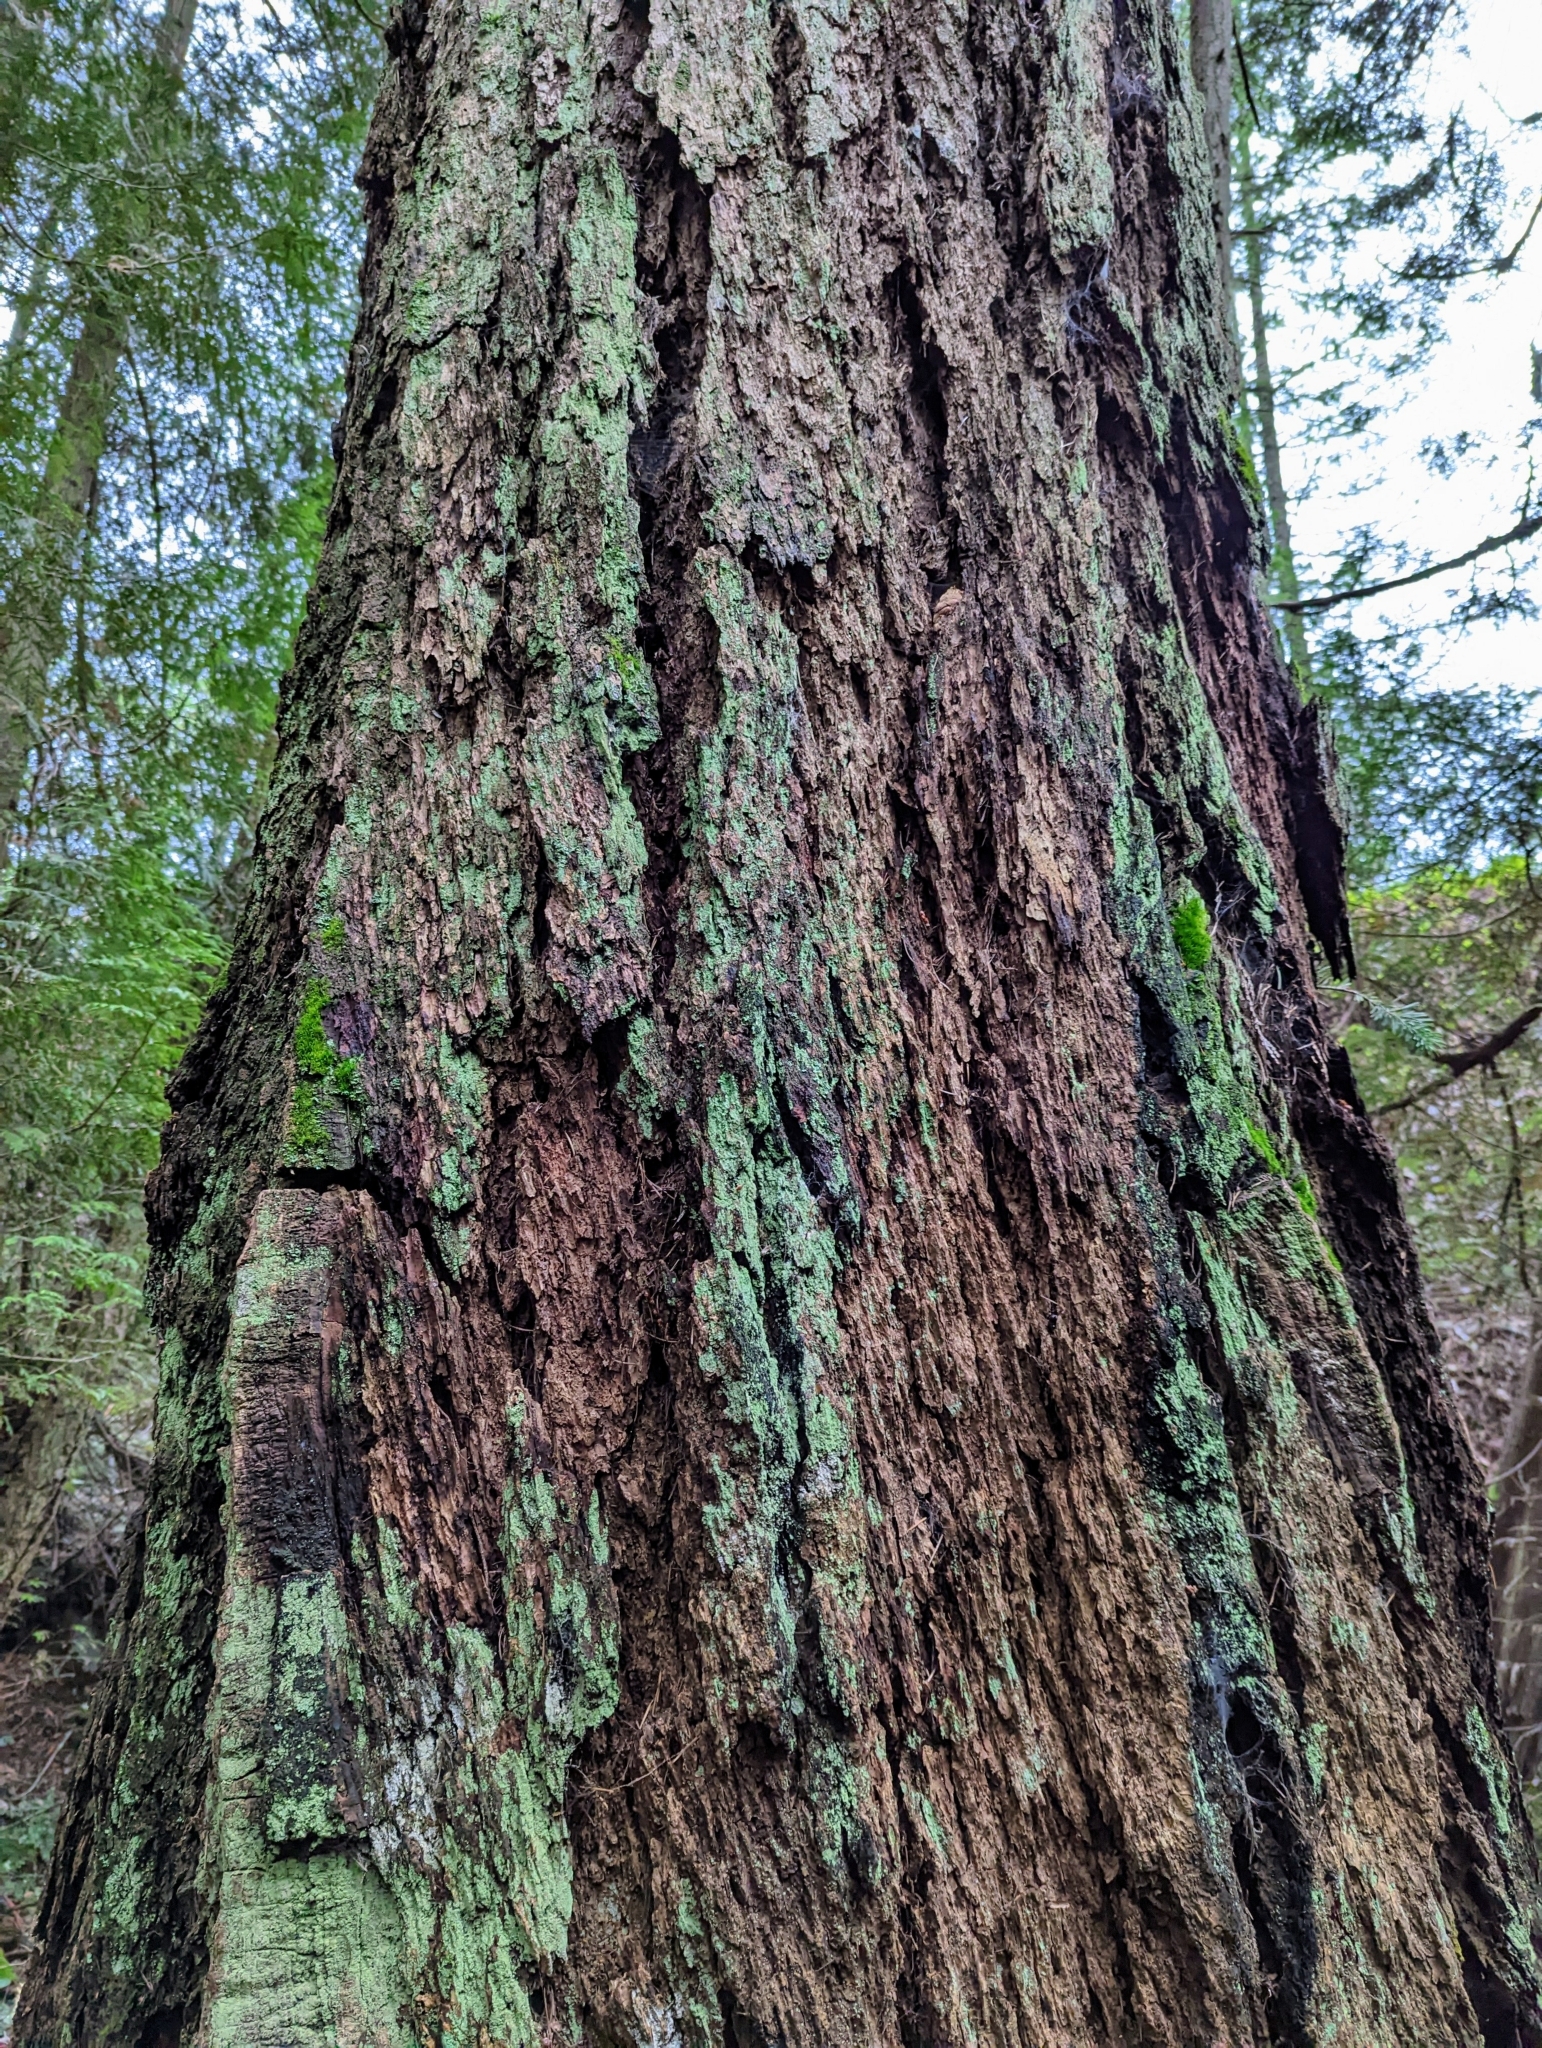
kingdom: Plantae
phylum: Tracheophyta
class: Pinopsida
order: Pinales
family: Pinaceae
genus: Pseudotsuga
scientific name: Pseudotsuga menziesii
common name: Douglas fir
